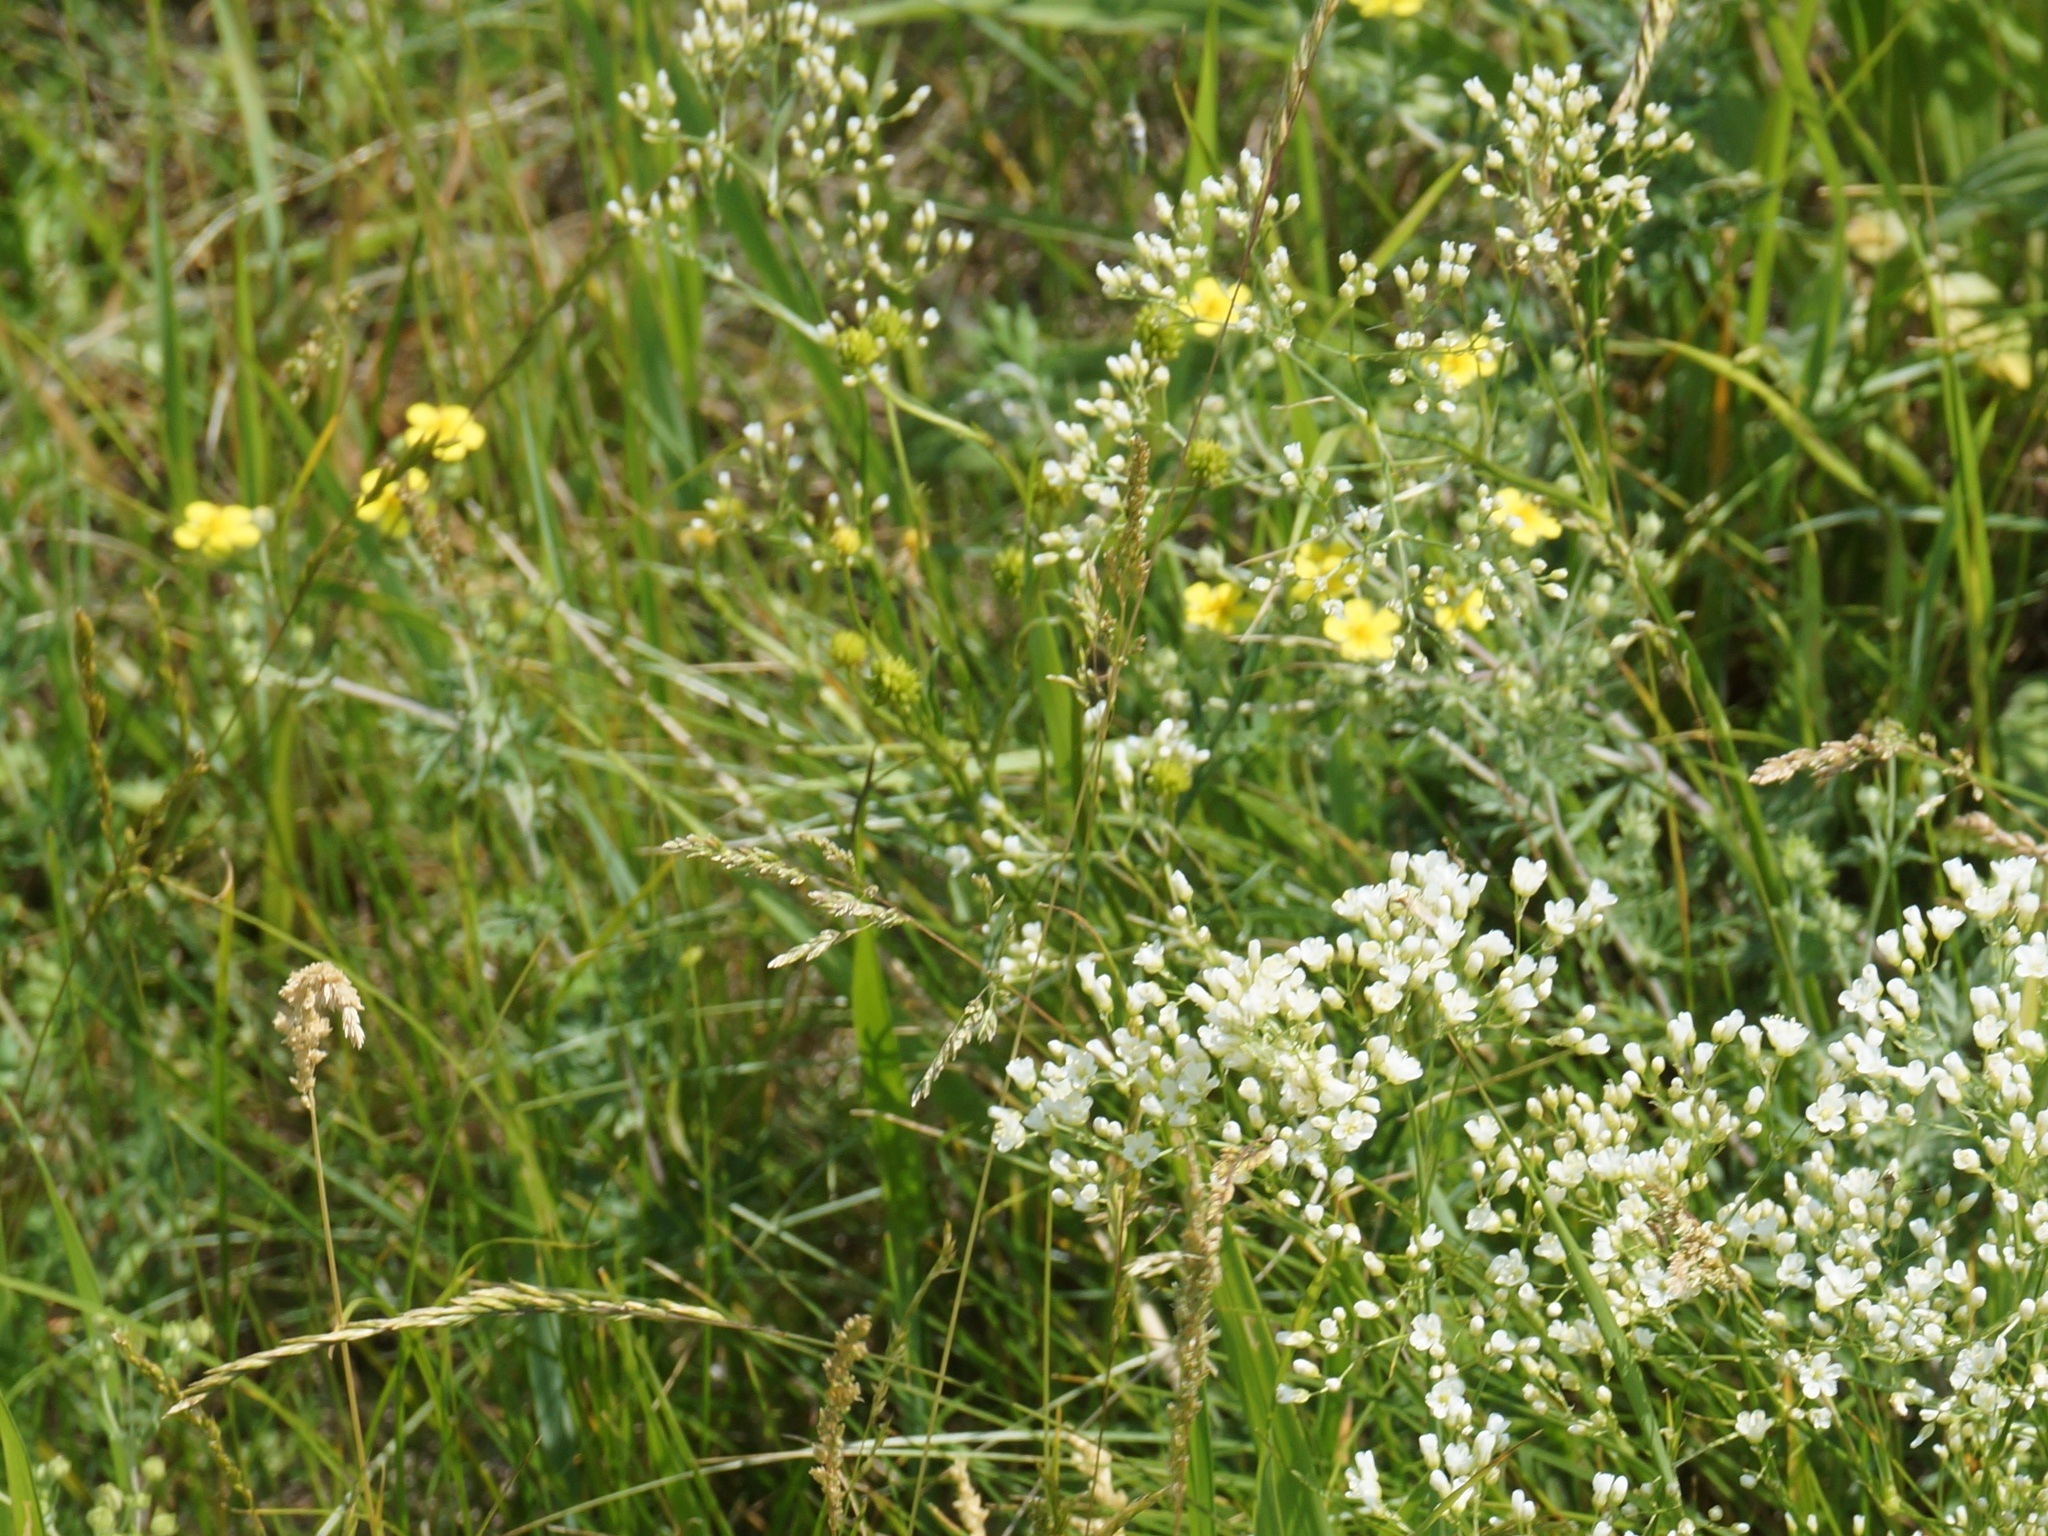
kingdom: Plantae
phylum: Tracheophyta
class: Magnoliopsida
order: Caryophyllales
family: Caryophyllaceae
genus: Eremogone
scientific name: Eremogone longifolia
